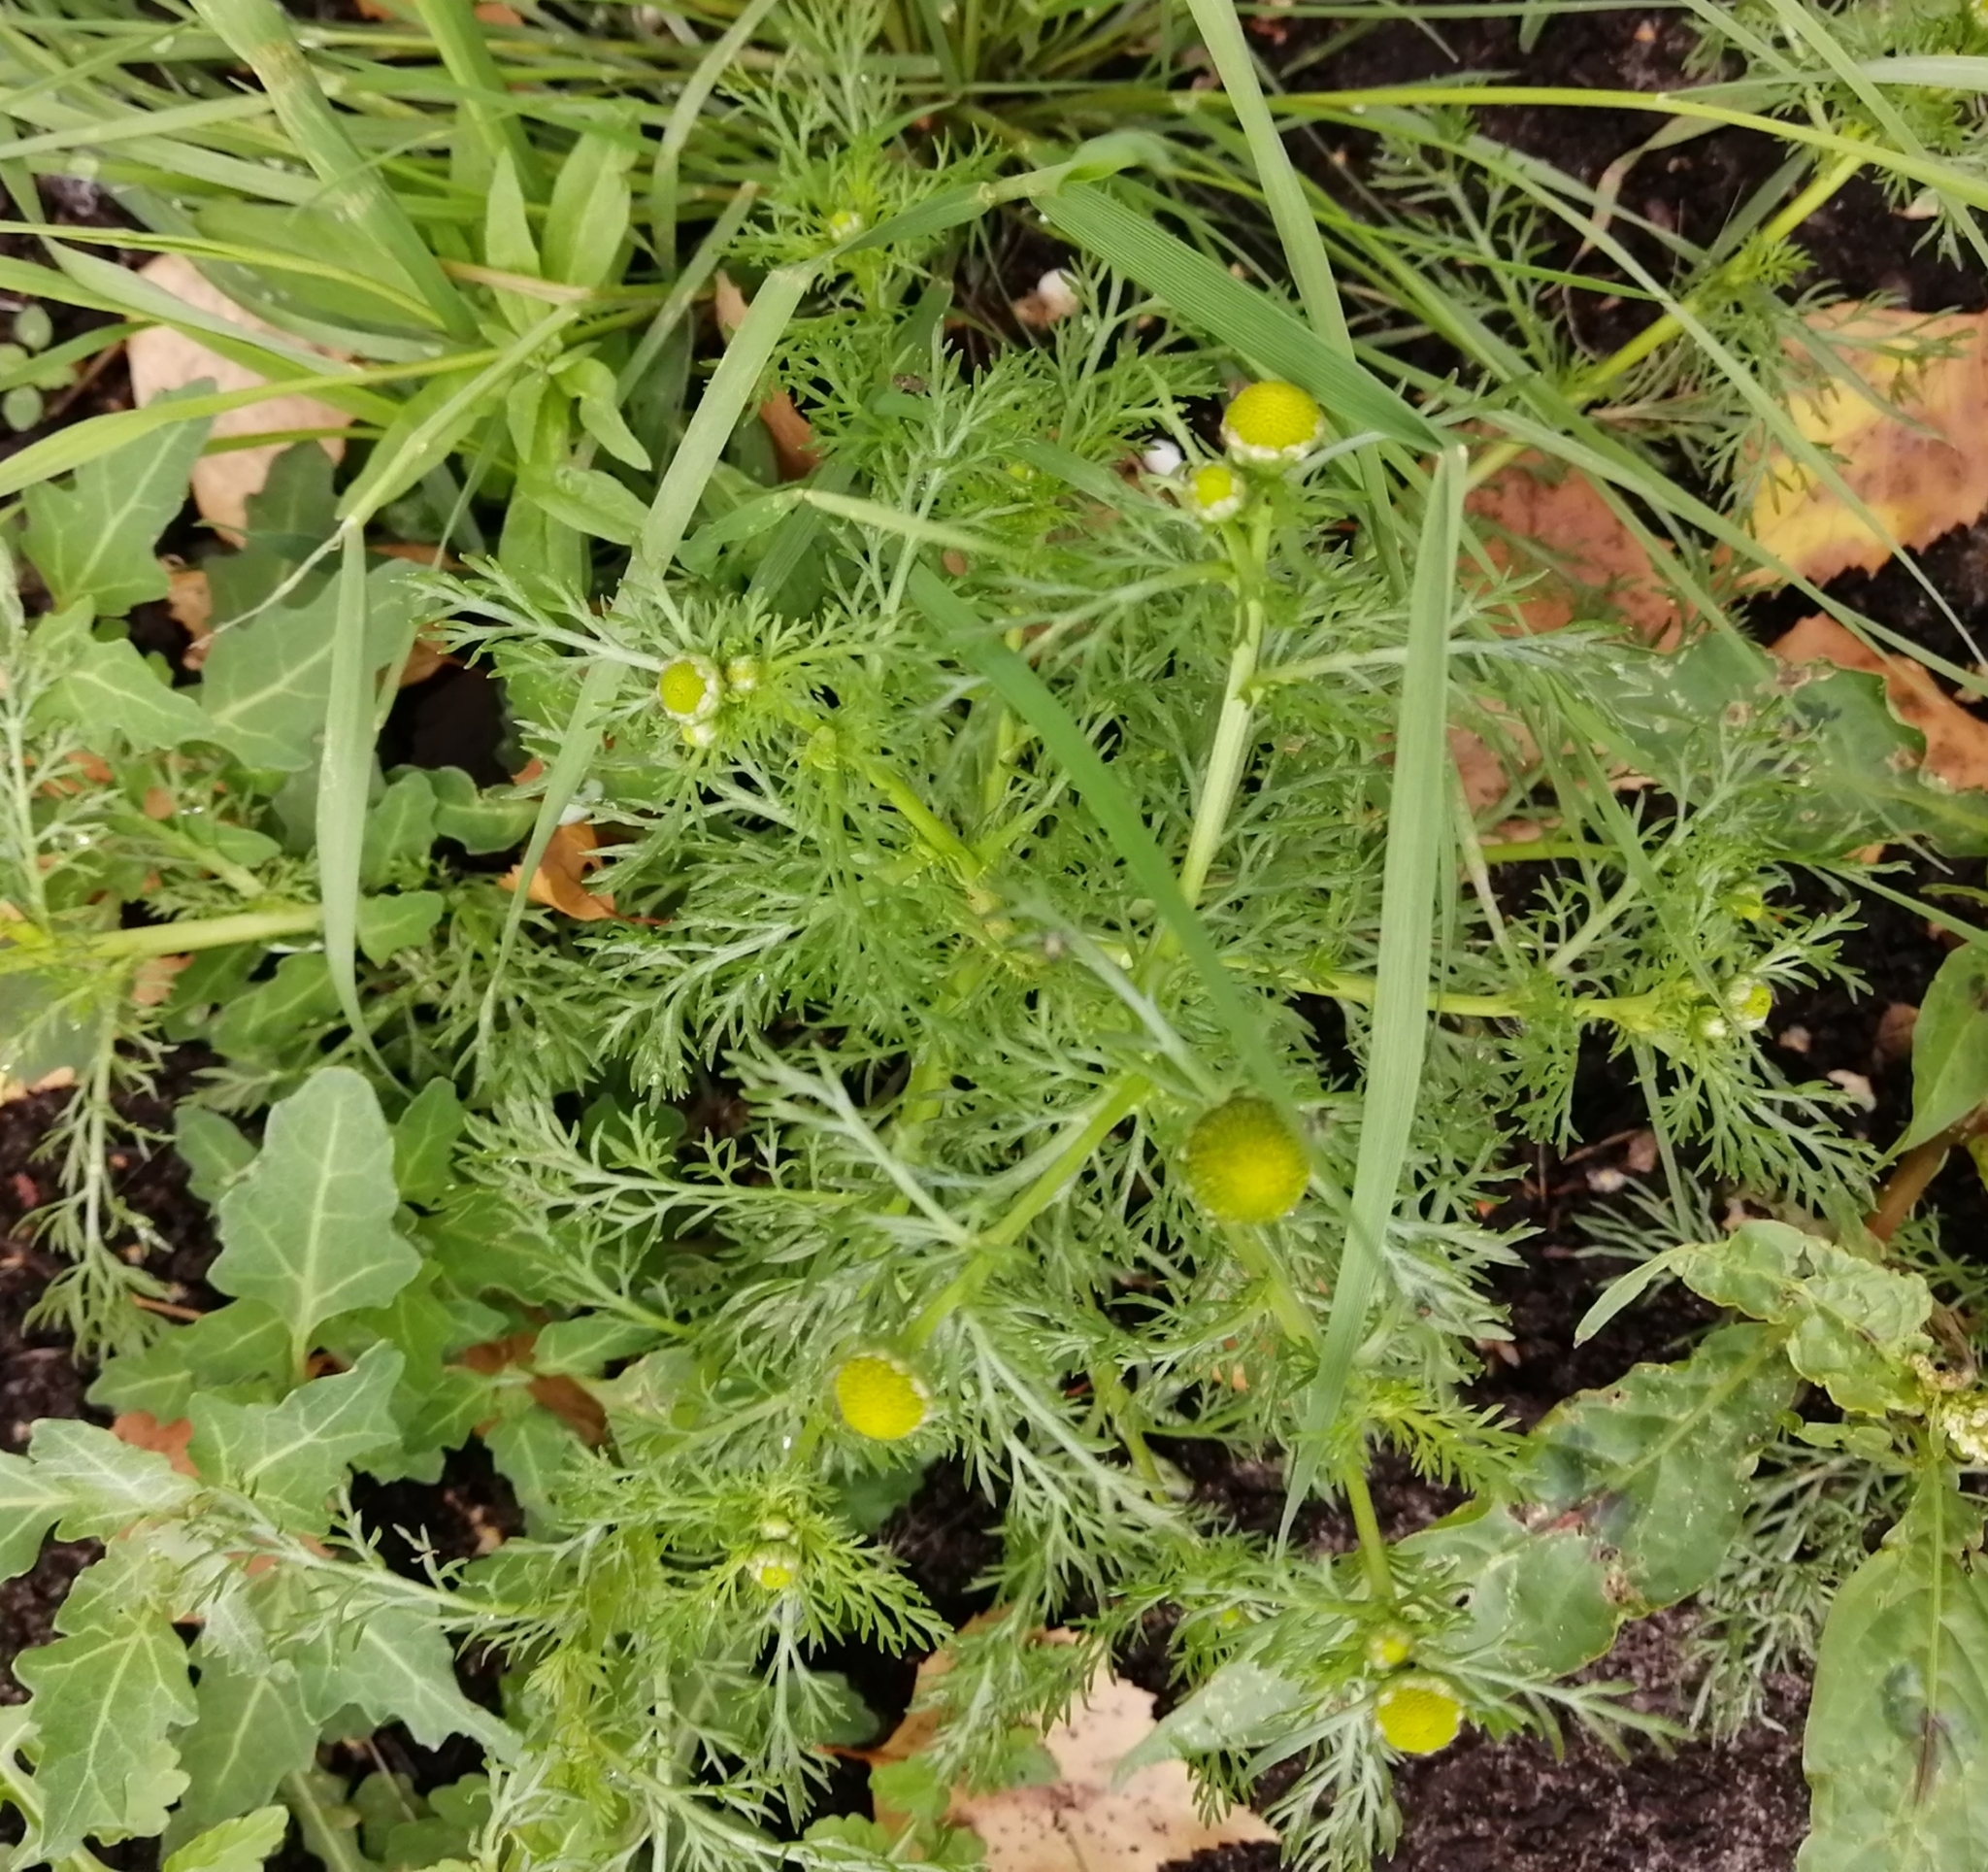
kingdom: Plantae
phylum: Tracheophyta
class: Magnoliopsida
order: Asterales
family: Asteraceae
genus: Matricaria
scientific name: Matricaria discoidea
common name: Disc mayweed
